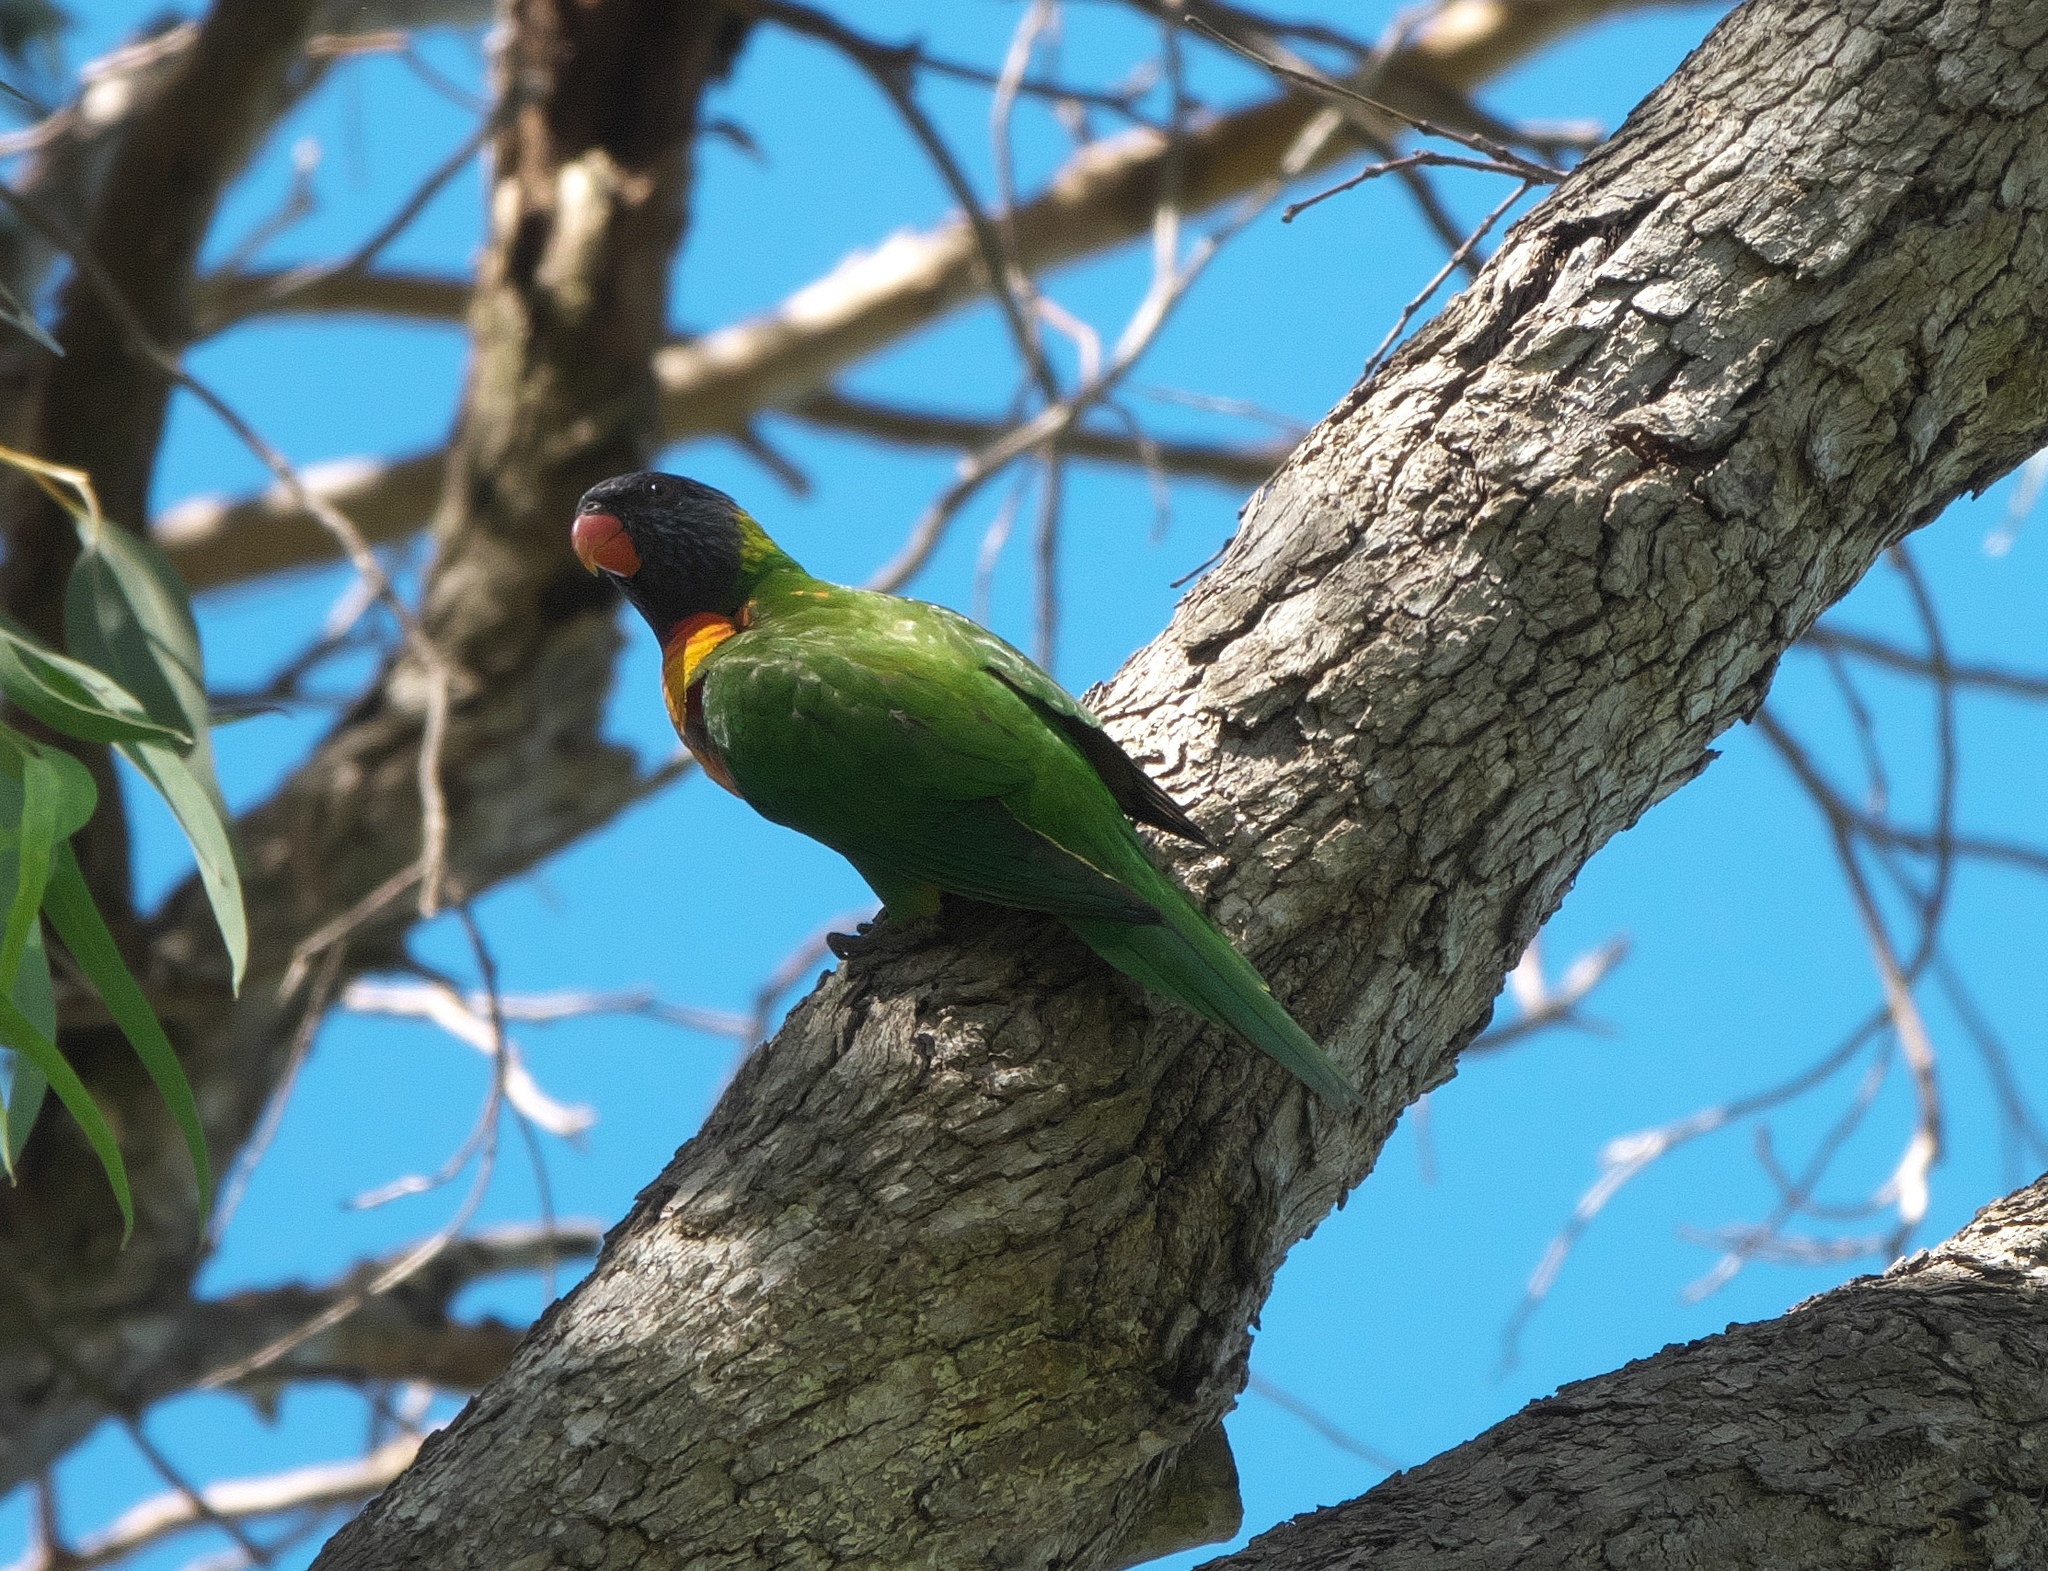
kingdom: Animalia
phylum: Chordata
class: Aves
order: Psittaciformes
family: Psittacidae
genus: Trichoglossus
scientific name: Trichoglossus haematodus
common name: Coconut lorikeet
